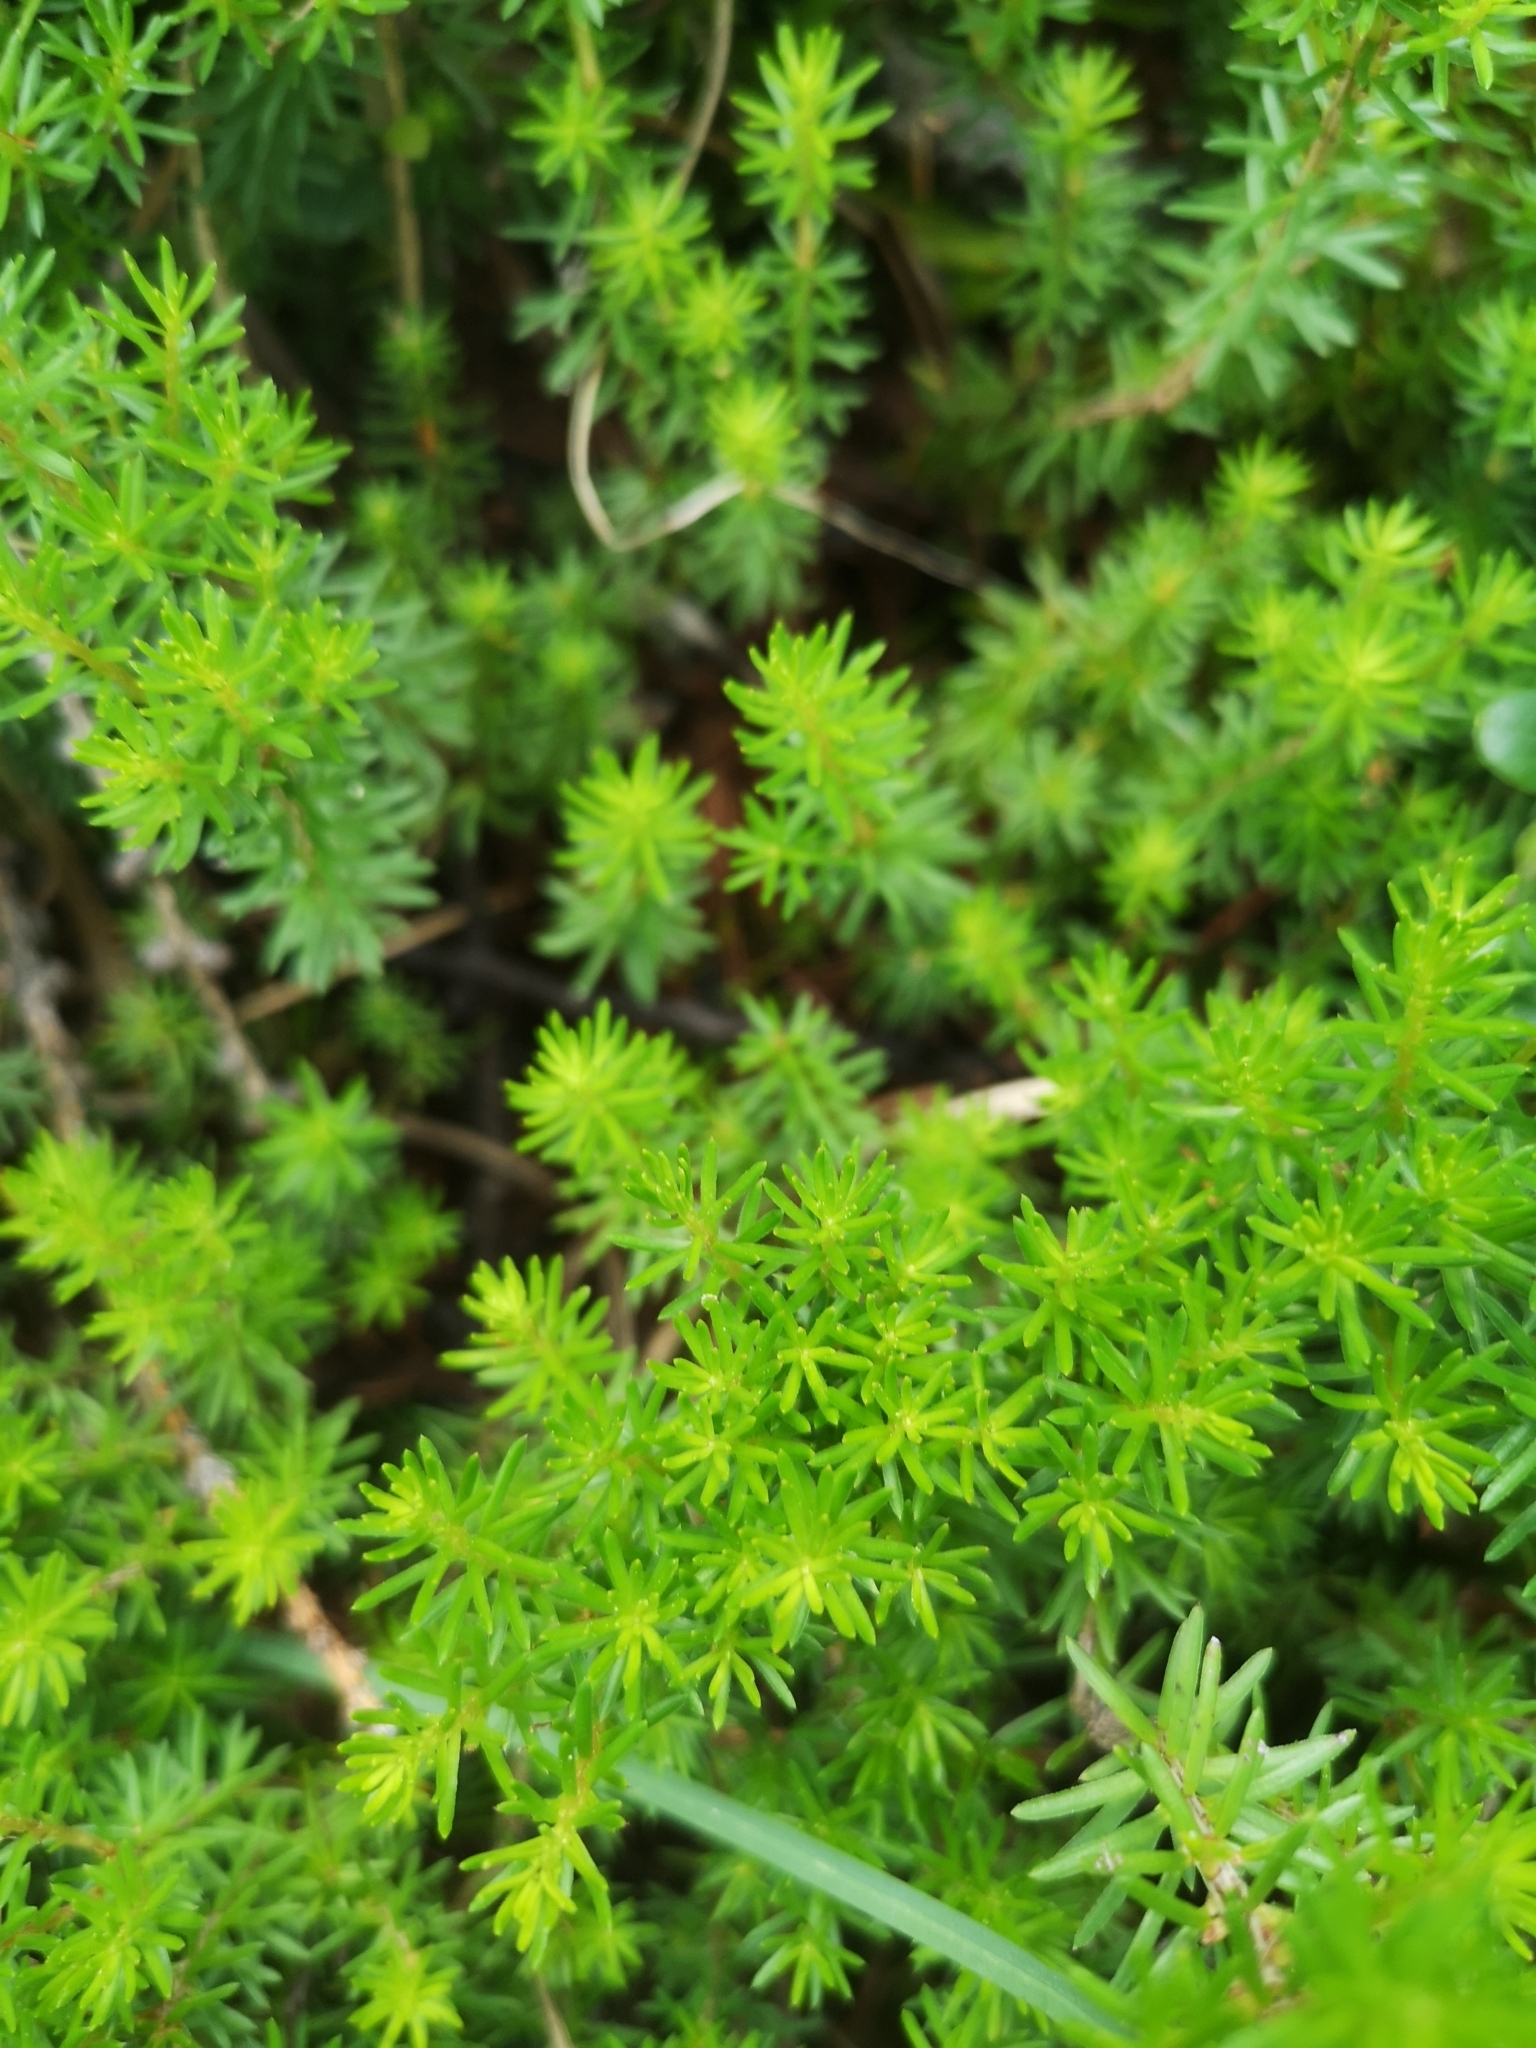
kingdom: Plantae
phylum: Tracheophyta
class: Magnoliopsida
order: Ericales
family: Ericaceae
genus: Erica
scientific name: Erica carnea
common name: Winter heath
